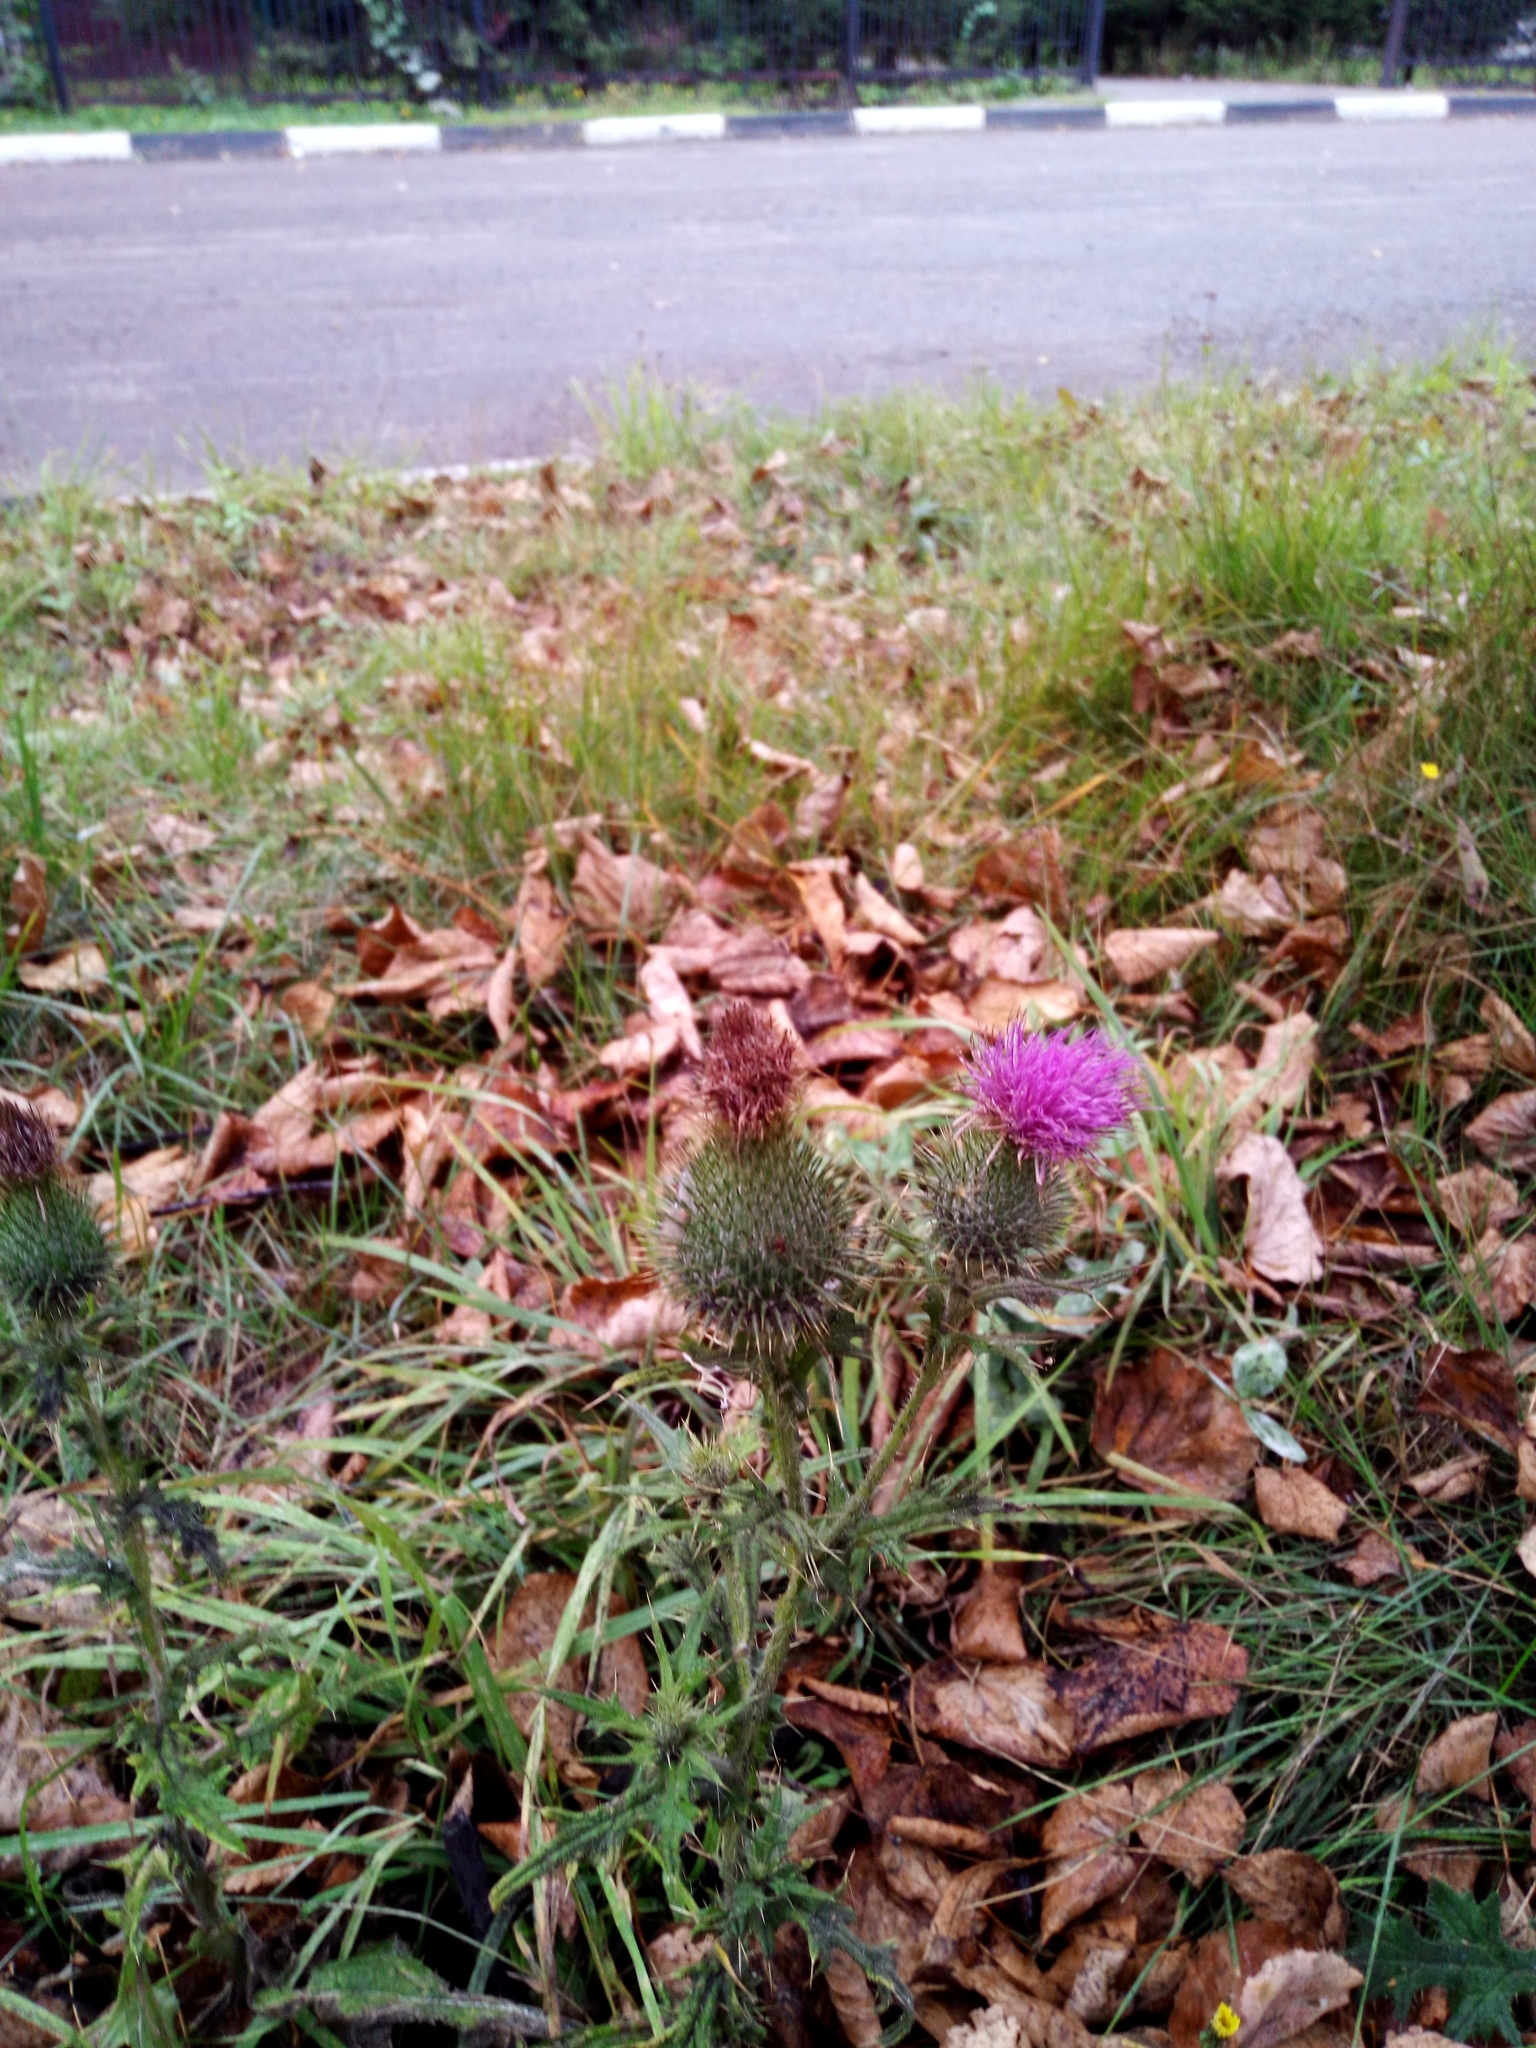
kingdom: Plantae
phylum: Tracheophyta
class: Magnoliopsida
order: Asterales
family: Asteraceae
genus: Cirsium
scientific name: Cirsium vulgare
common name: Bull thistle
